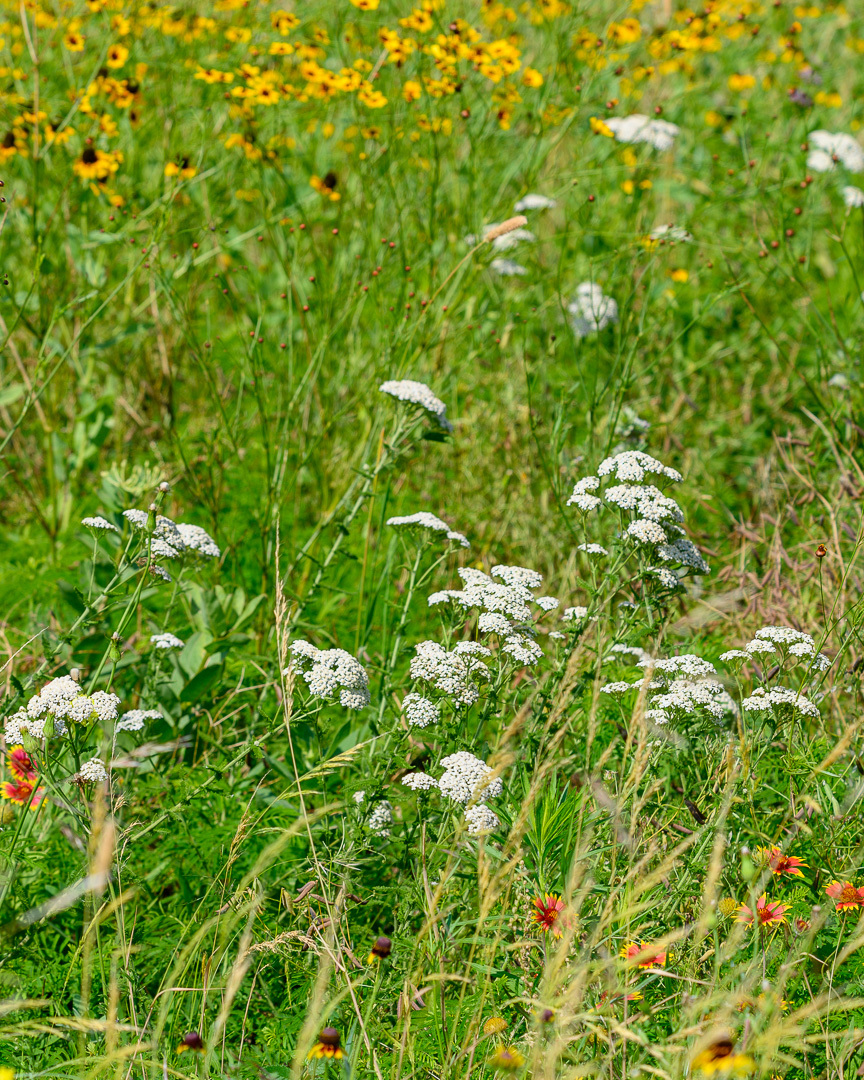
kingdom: Plantae
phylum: Tracheophyta
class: Magnoliopsida
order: Asterales
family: Asteraceae
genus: Achillea
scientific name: Achillea millefolium
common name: Yarrow
